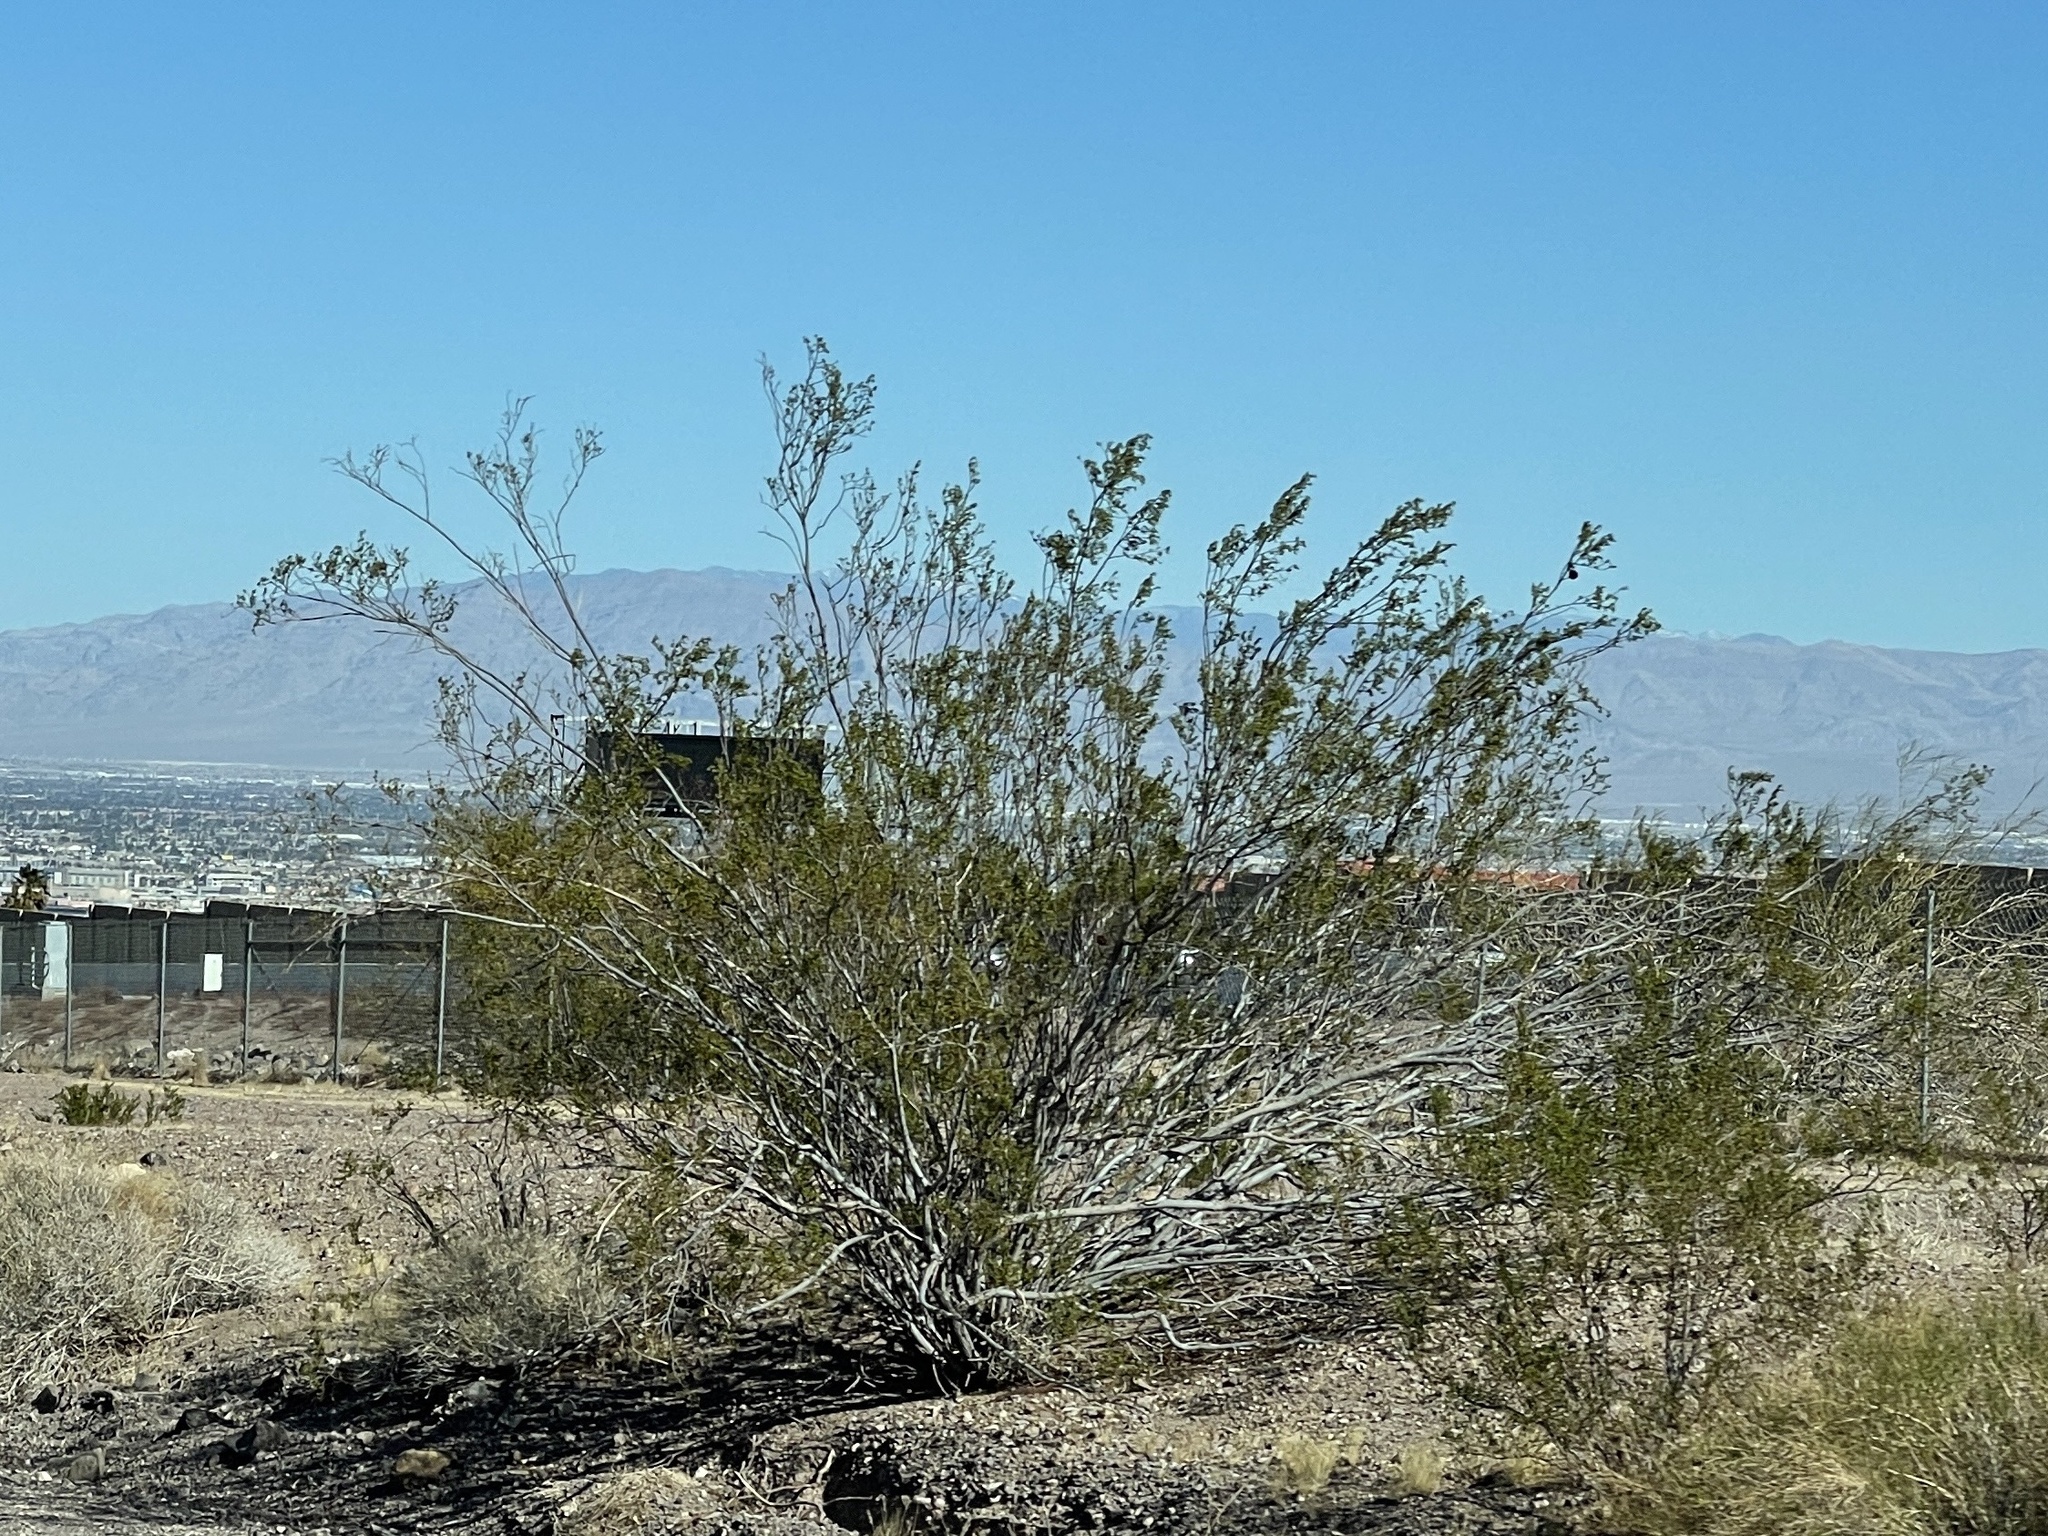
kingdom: Plantae
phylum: Tracheophyta
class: Magnoliopsida
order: Zygophyllales
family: Zygophyllaceae
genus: Larrea
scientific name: Larrea tridentata
